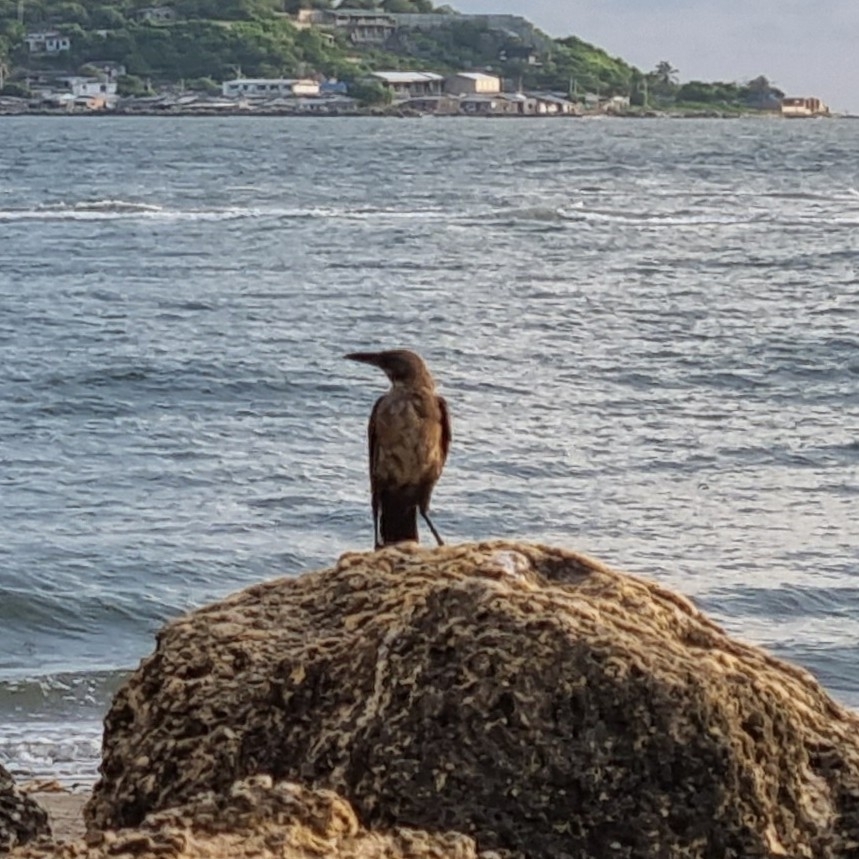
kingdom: Animalia
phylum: Chordata
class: Aves
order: Passeriformes
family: Icteridae
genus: Quiscalus
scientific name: Quiscalus mexicanus
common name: Great-tailed grackle
